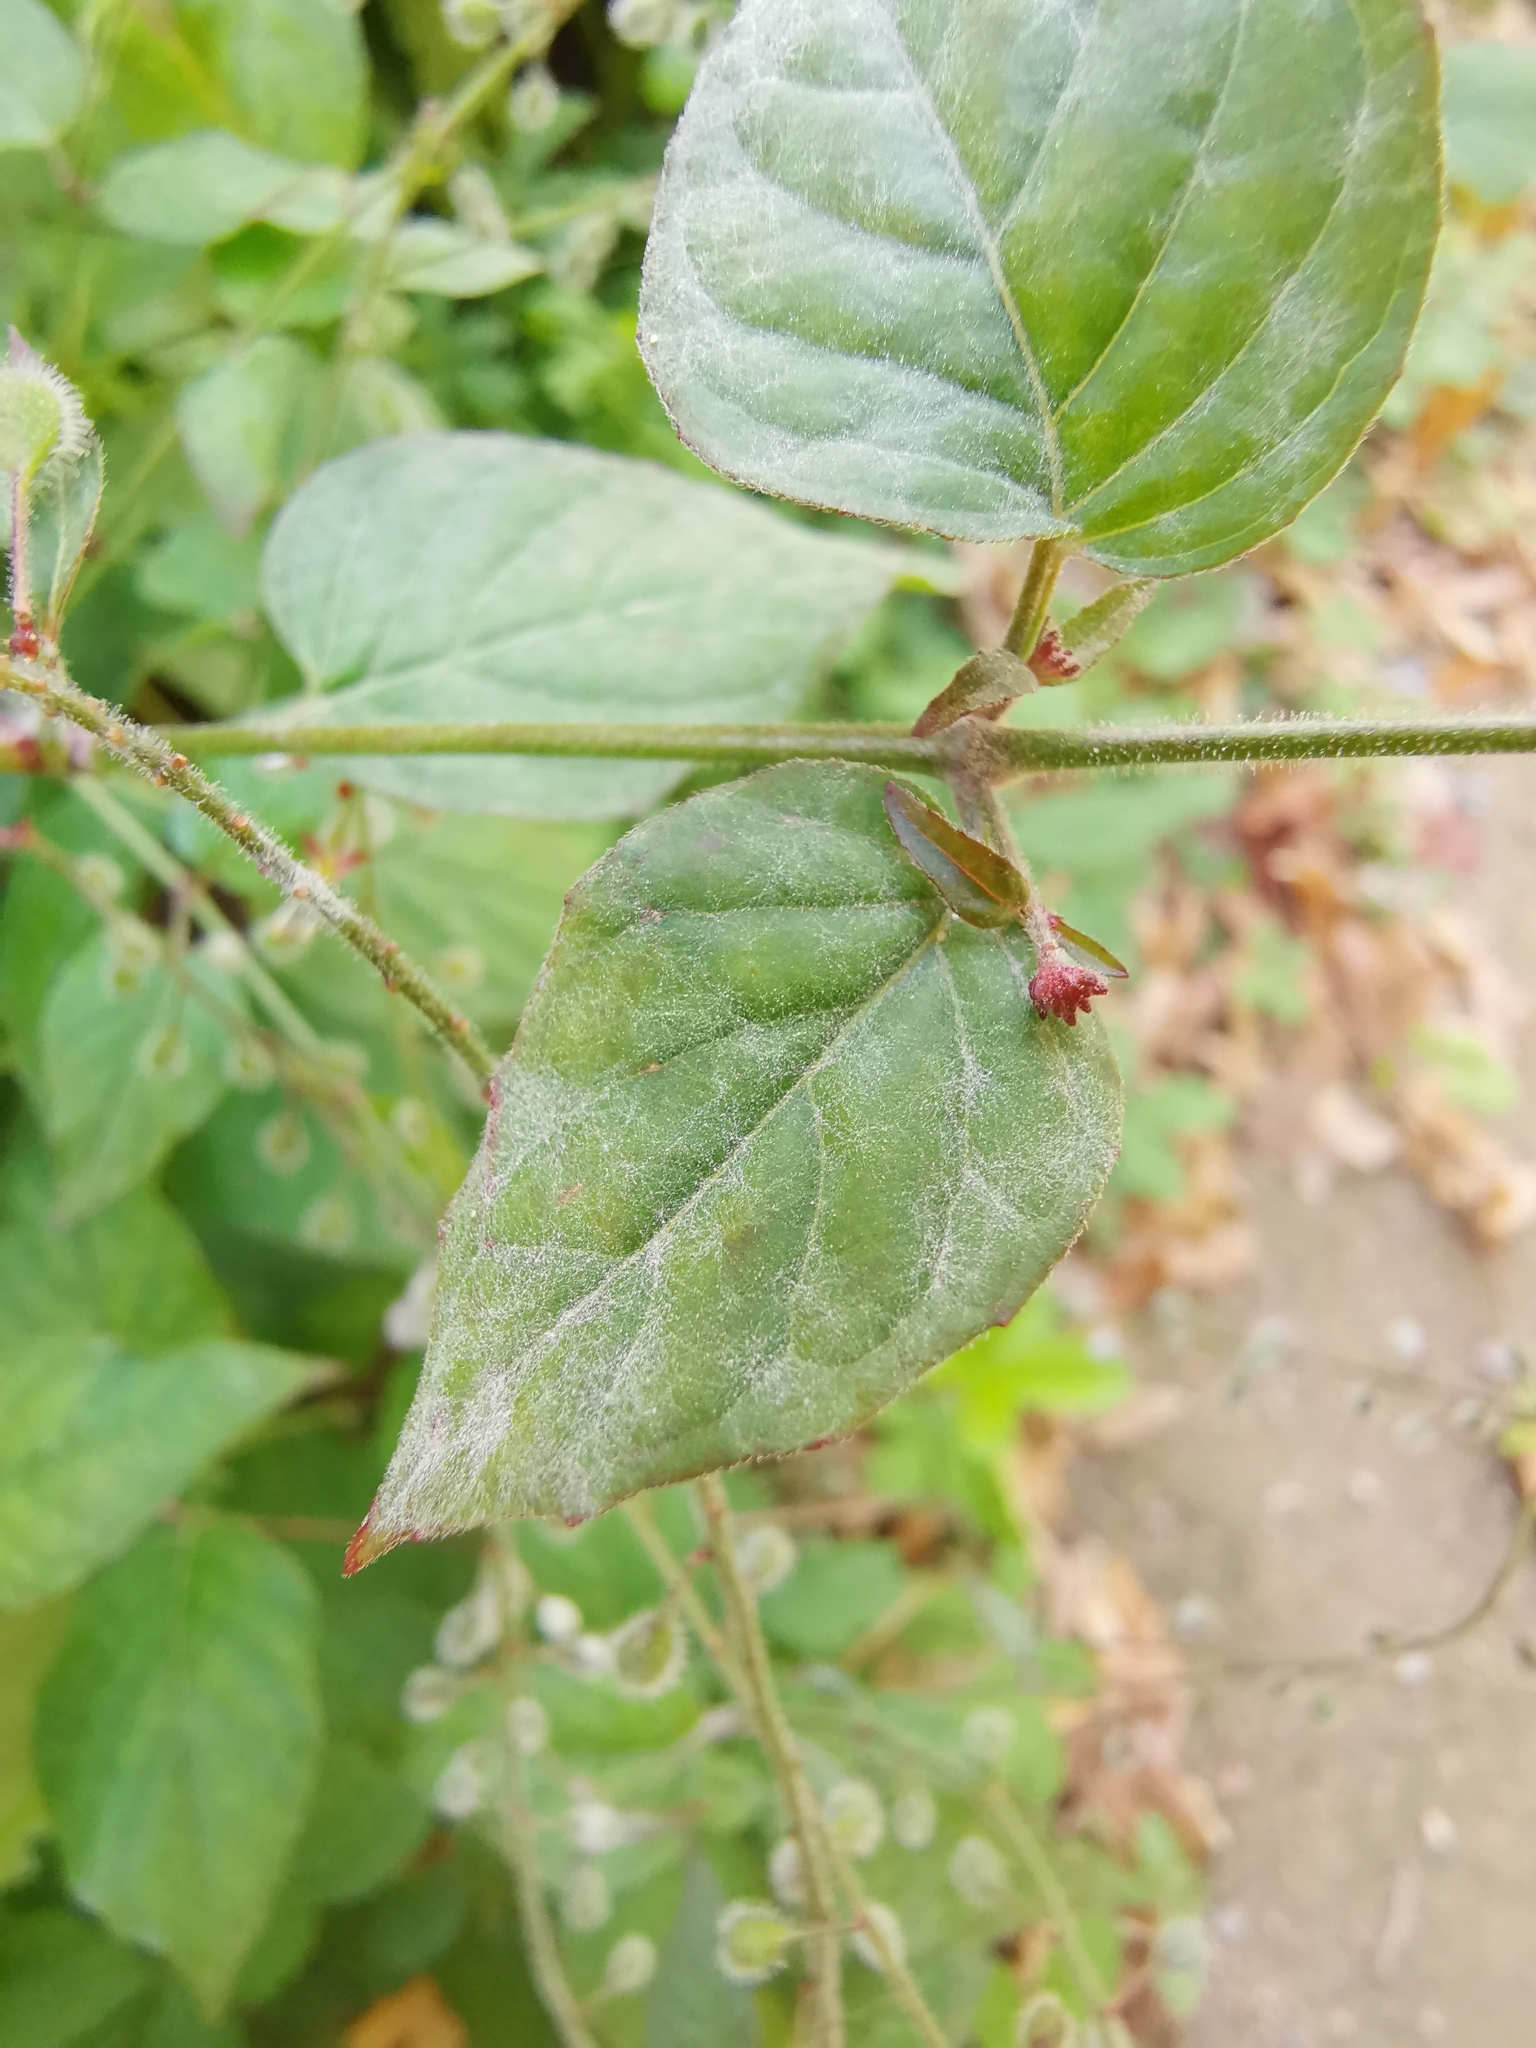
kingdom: Fungi
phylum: Ascomycota
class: Leotiomycetes
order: Helotiales
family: Erysiphaceae
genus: Erysiphe
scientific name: Erysiphe circaeae
